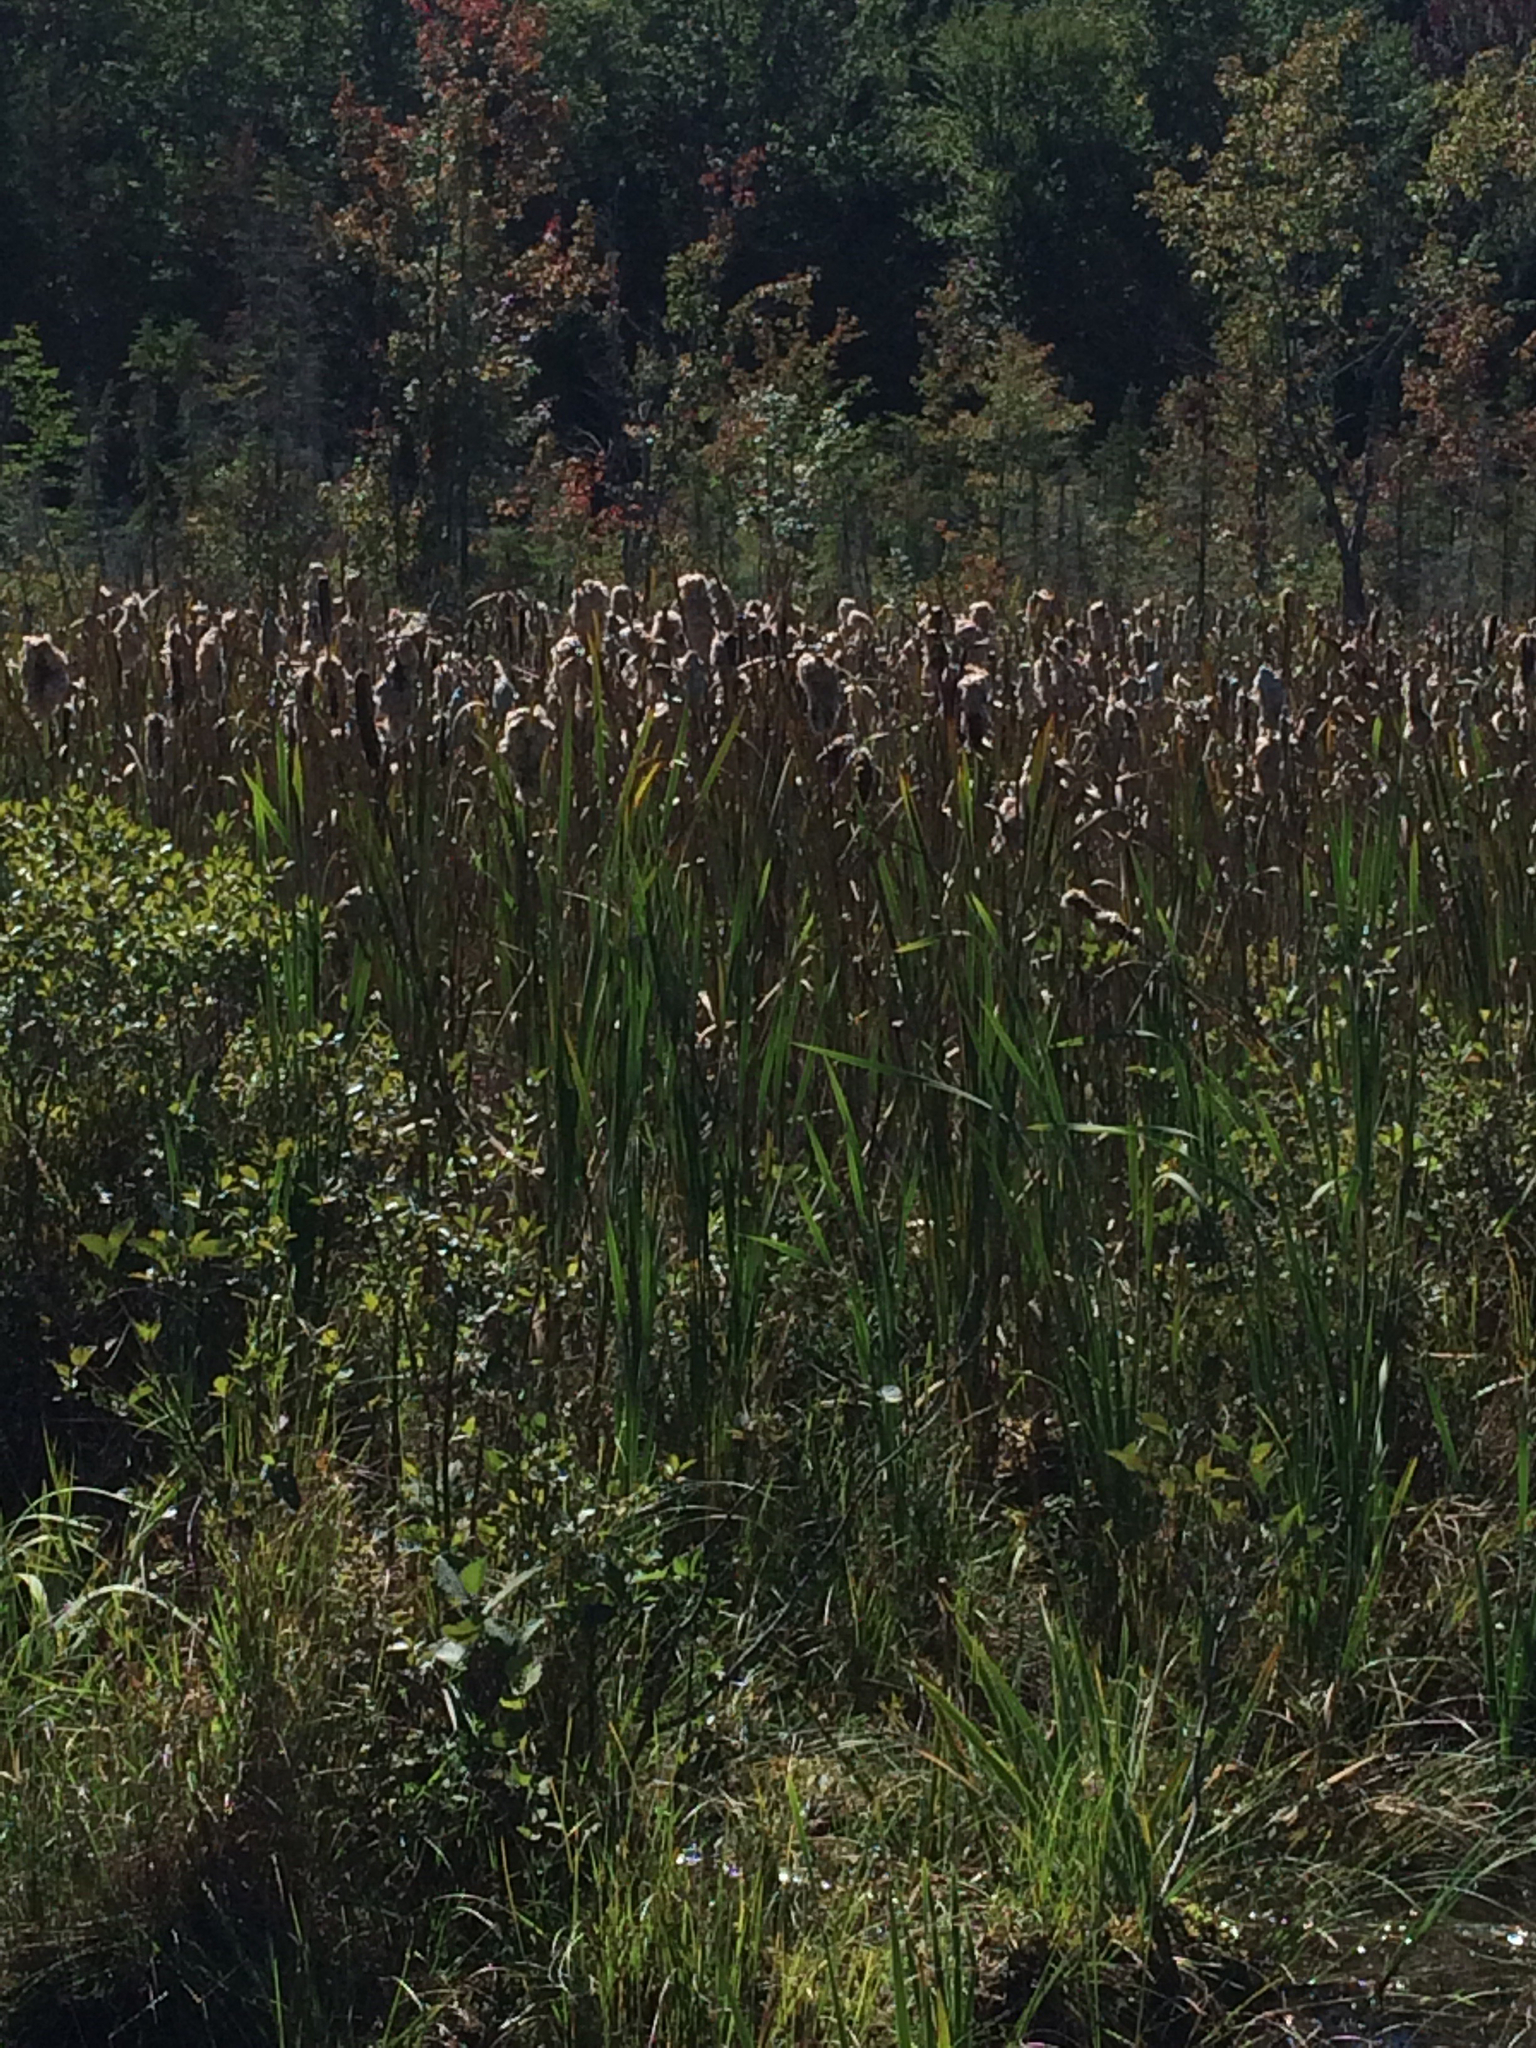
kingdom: Plantae
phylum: Tracheophyta
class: Liliopsida
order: Poales
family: Typhaceae
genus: Typha
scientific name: Typha latifolia
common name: Broadleaf cattail
